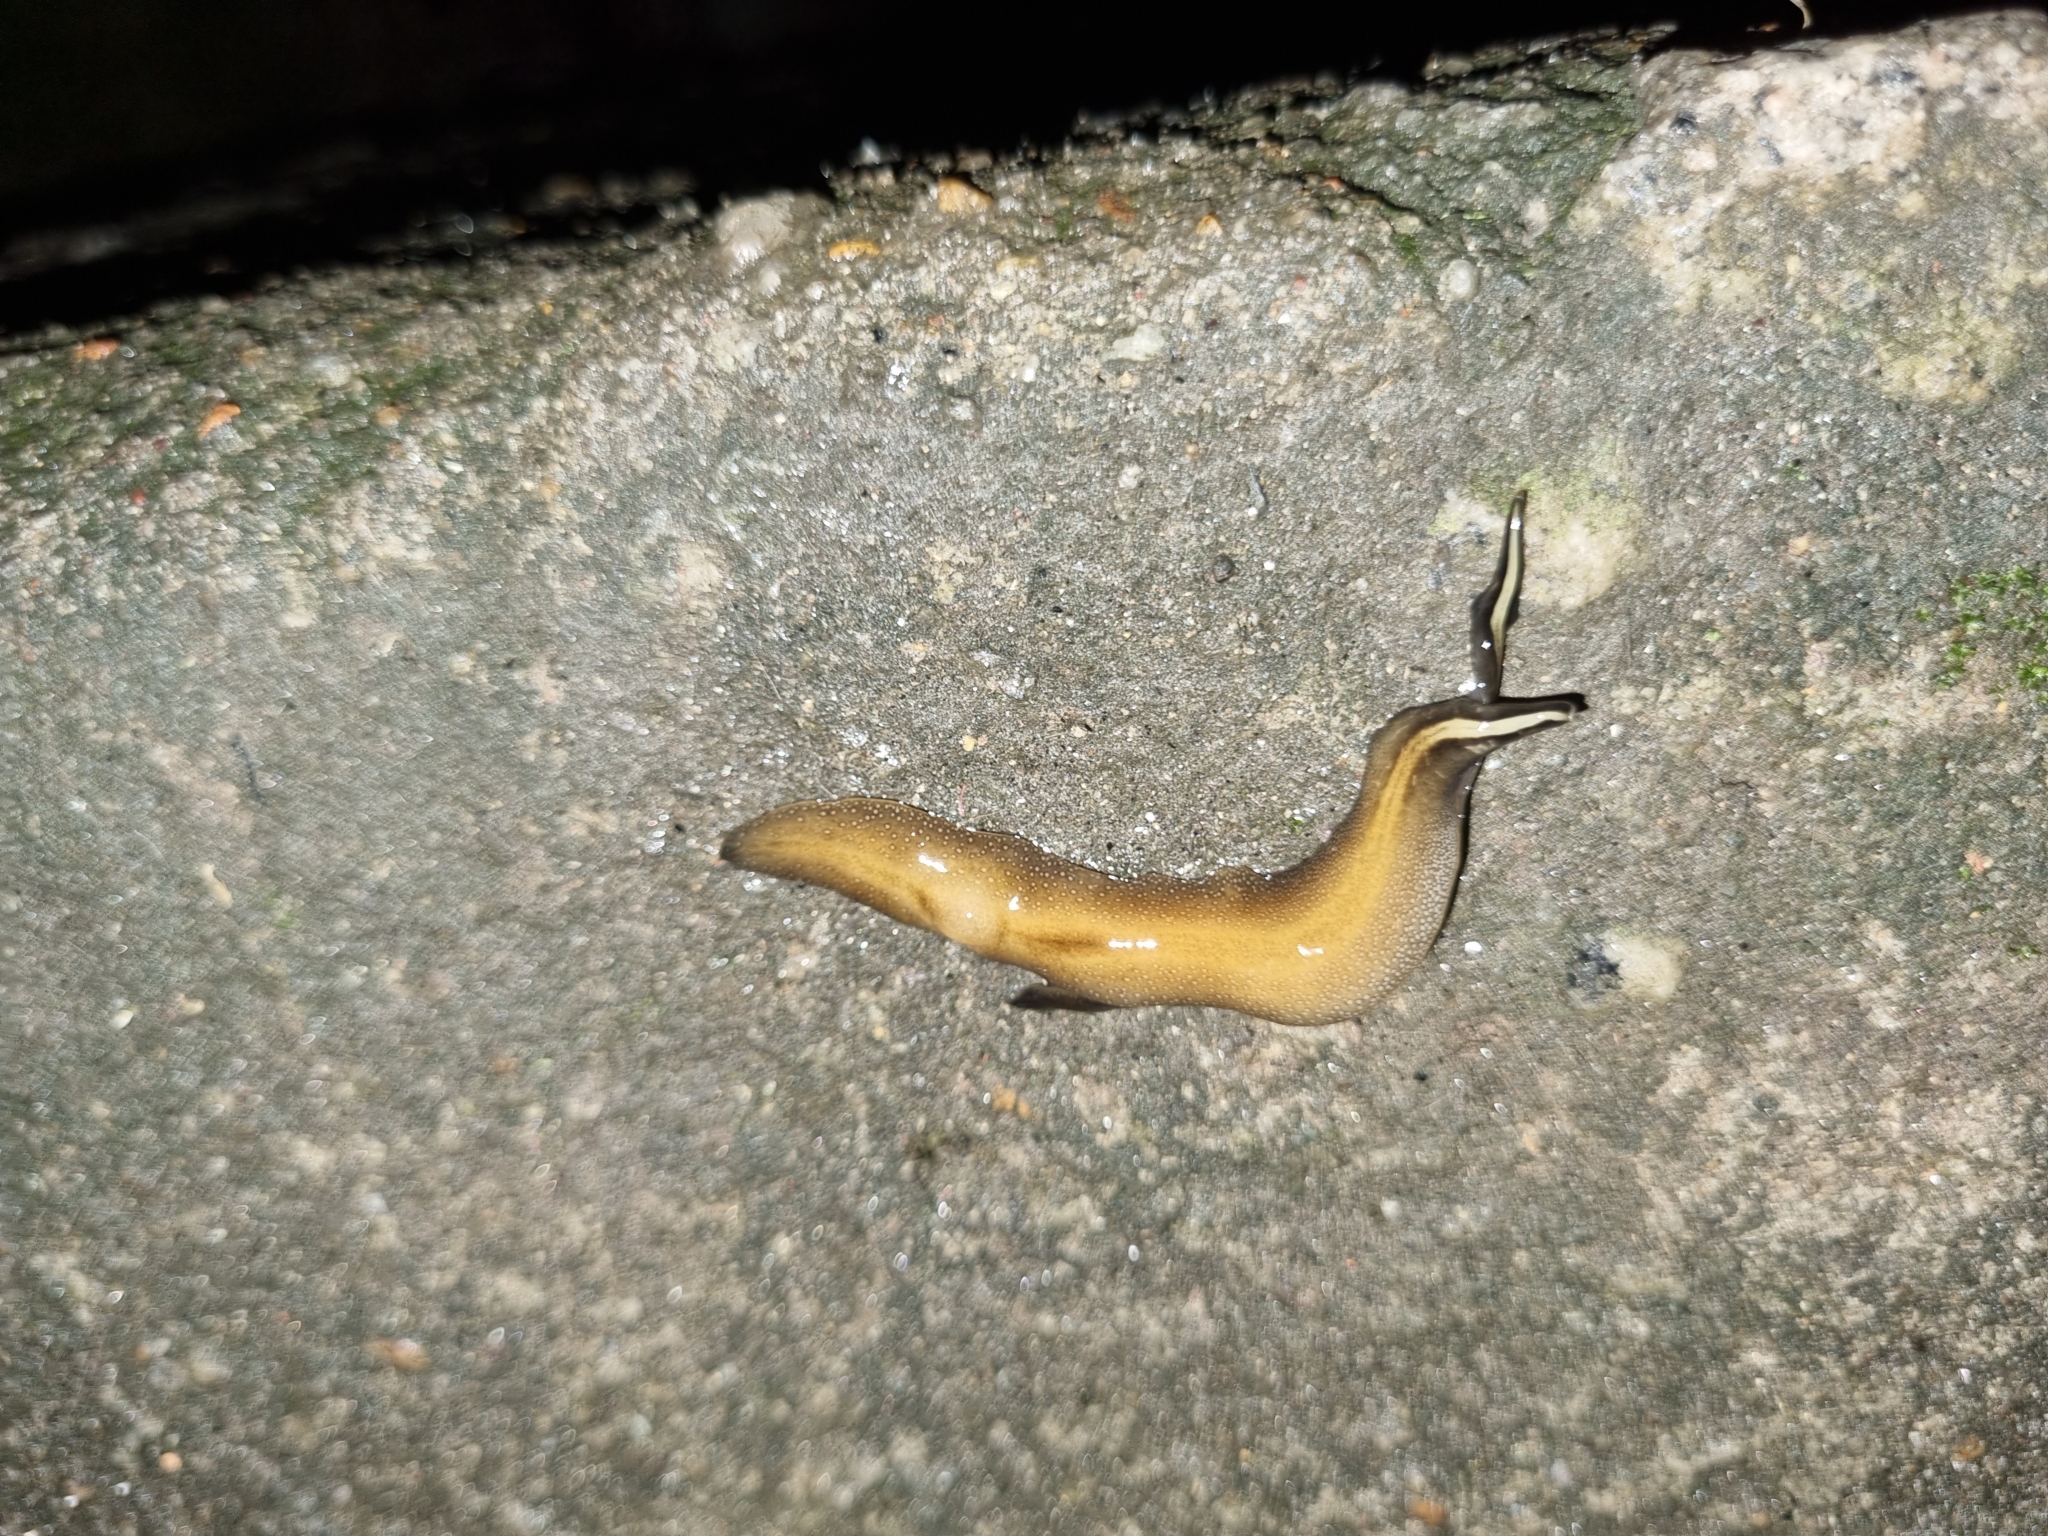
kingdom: Animalia
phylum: Platyhelminthes
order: Tricladida
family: Geoplanidae
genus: Obama
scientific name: Obama burmeisteri
